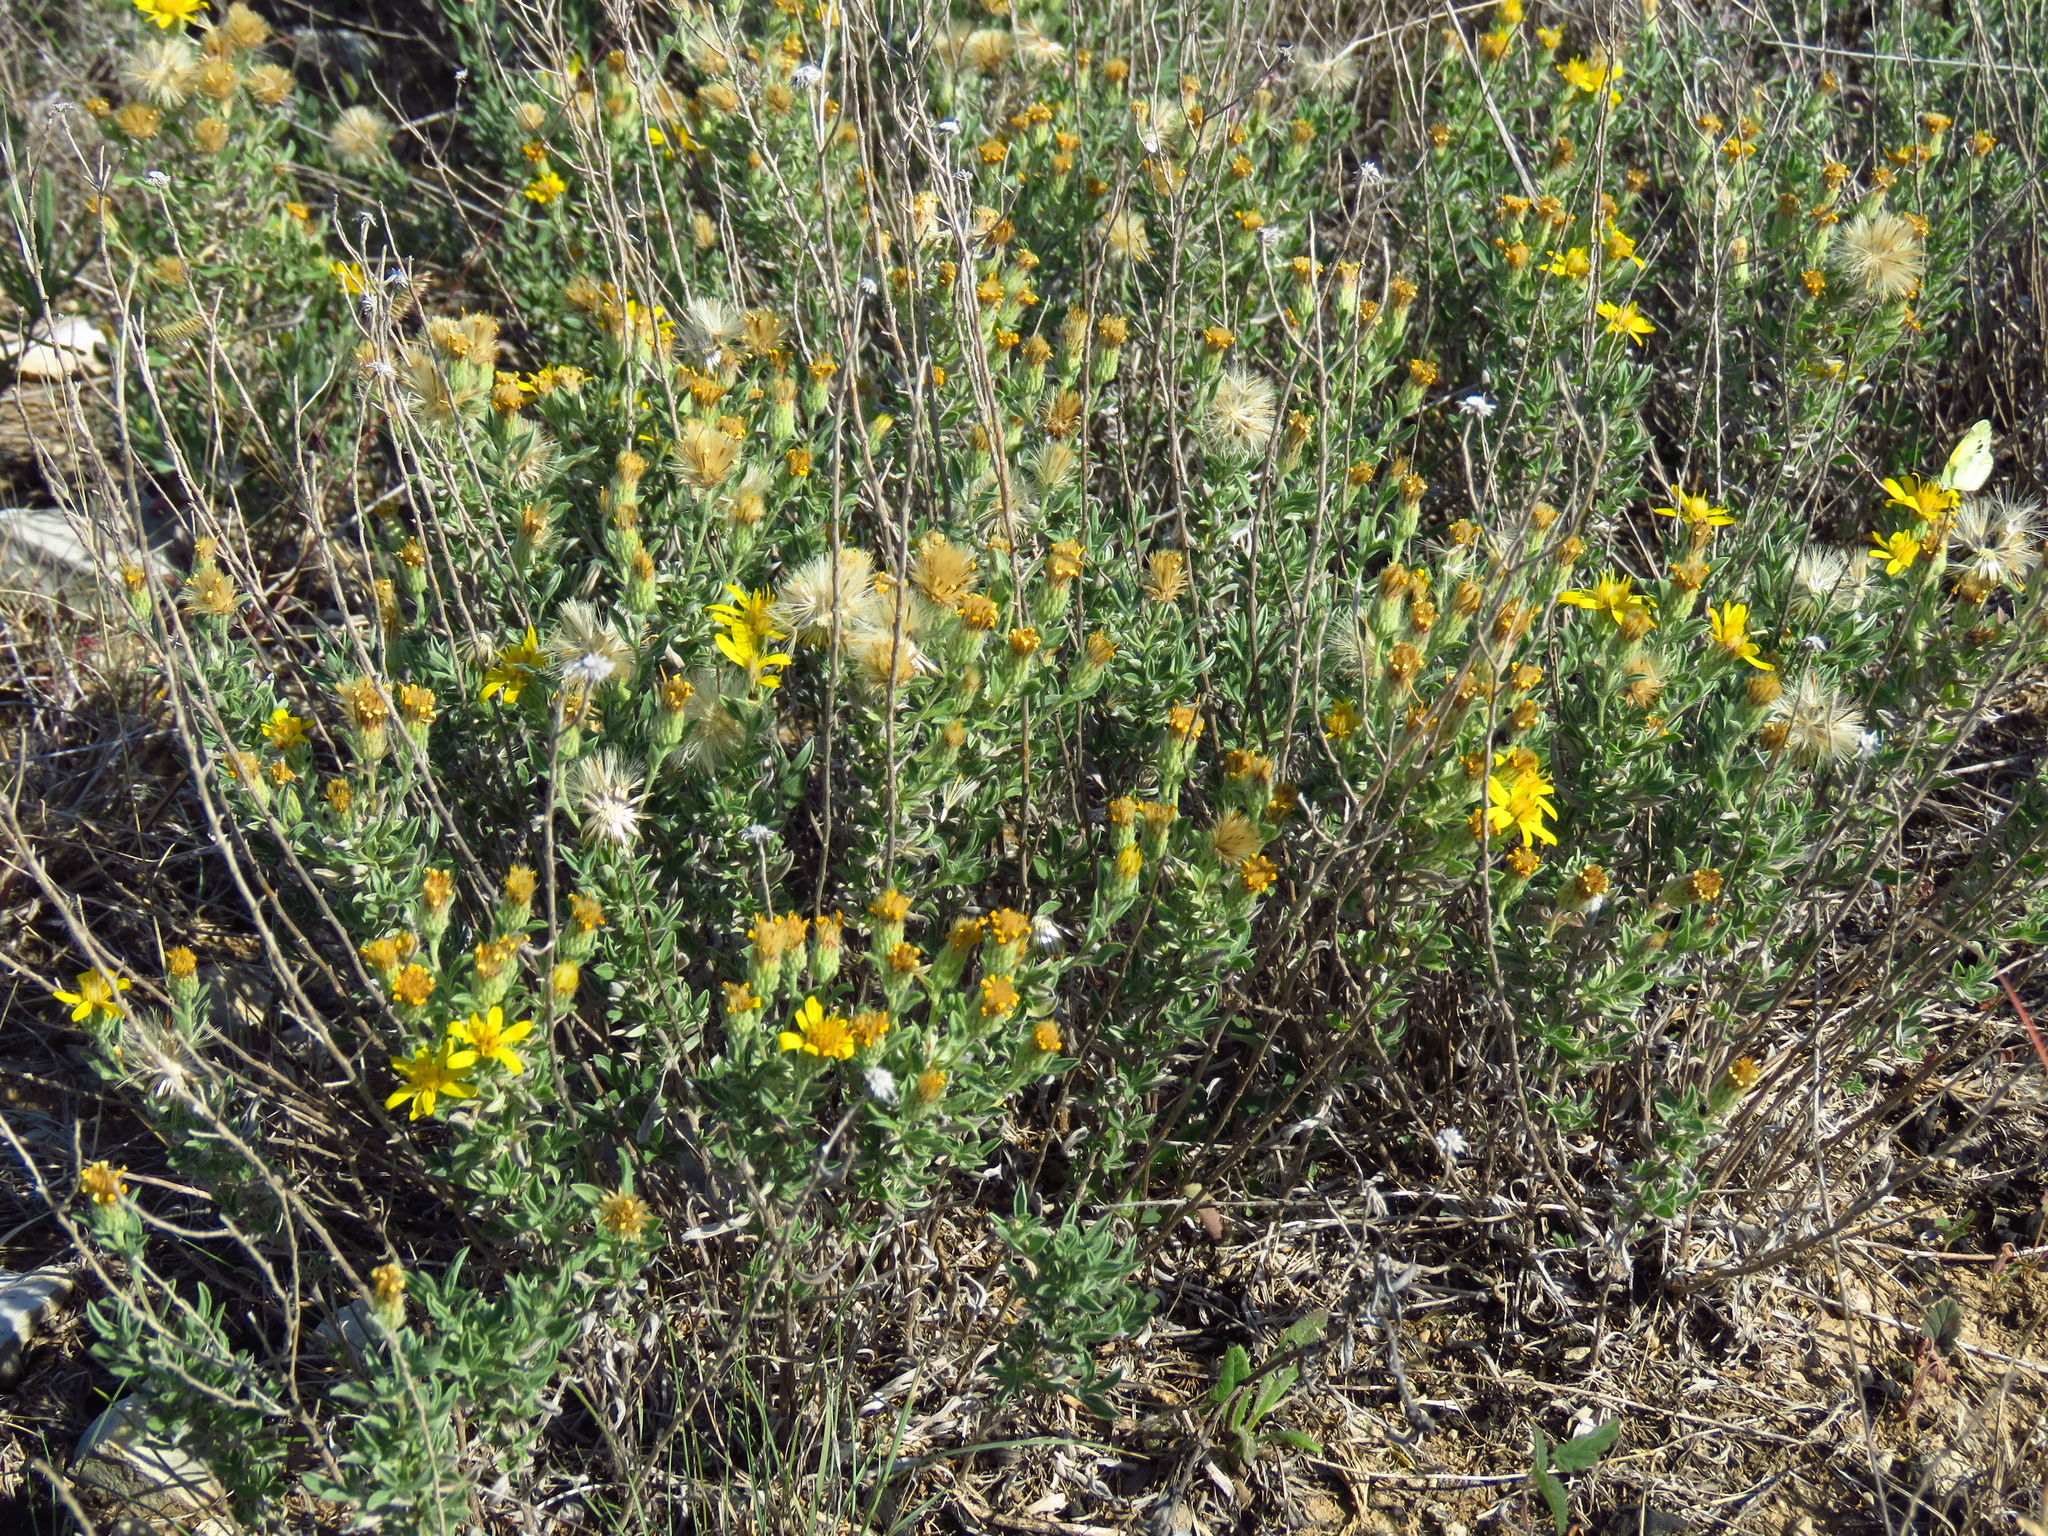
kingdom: Plantae
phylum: Tracheophyta
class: Magnoliopsida
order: Asterales
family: Asteraceae
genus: Heterotheca
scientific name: Heterotheca canescens
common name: Hoary golden-aster
